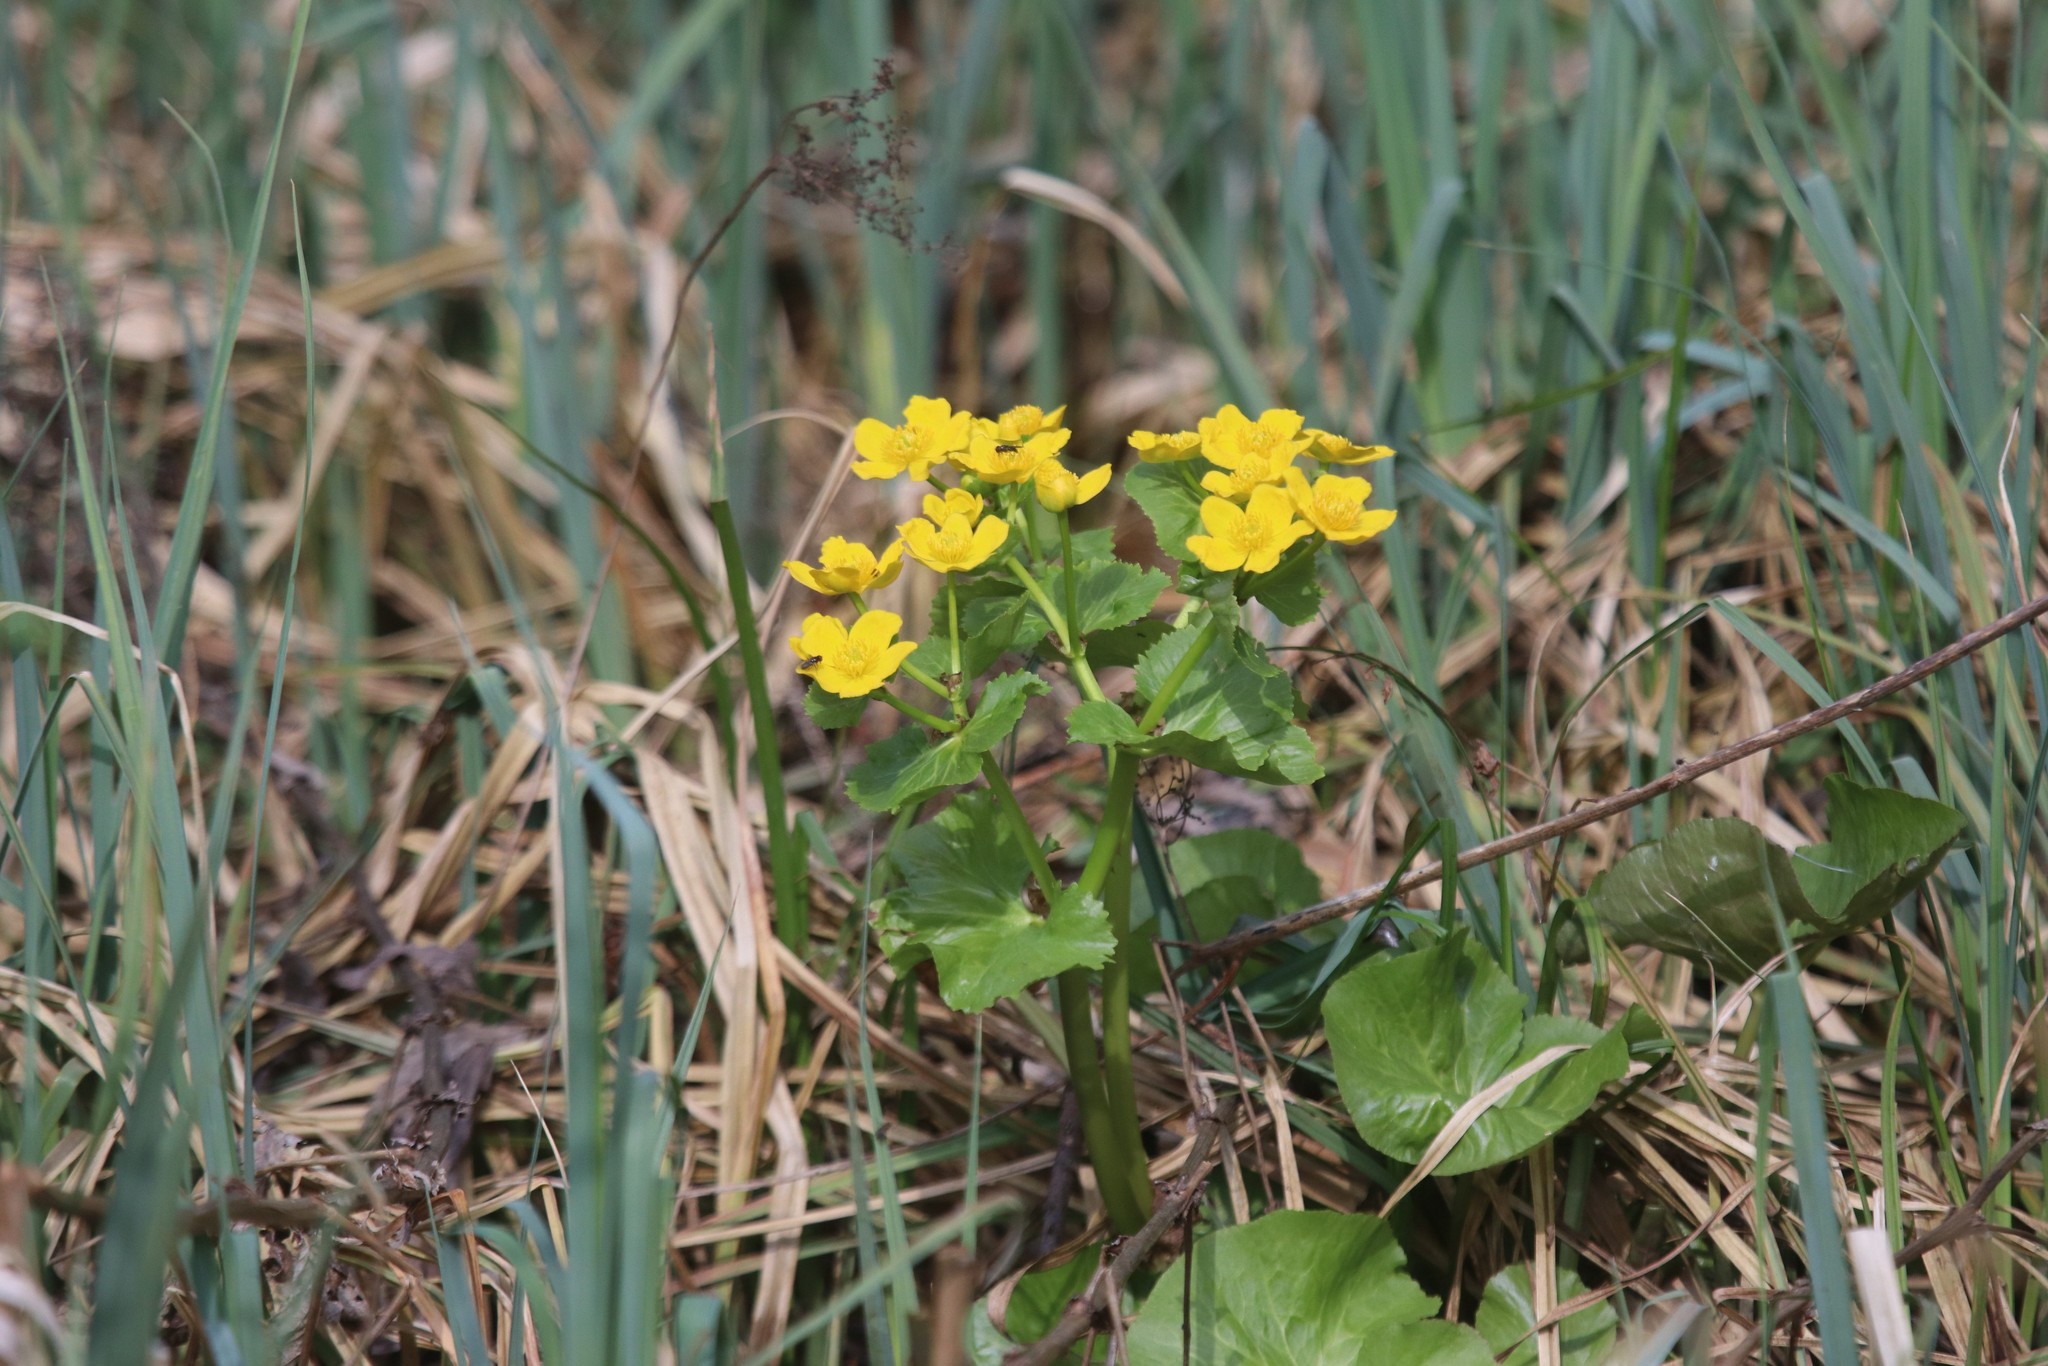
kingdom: Plantae
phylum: Tracheophyta
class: Magnoliopsida
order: Ranunculales
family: Ranunculaceae
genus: Caltha
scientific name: Caltha palustris
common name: Marsh marigold
